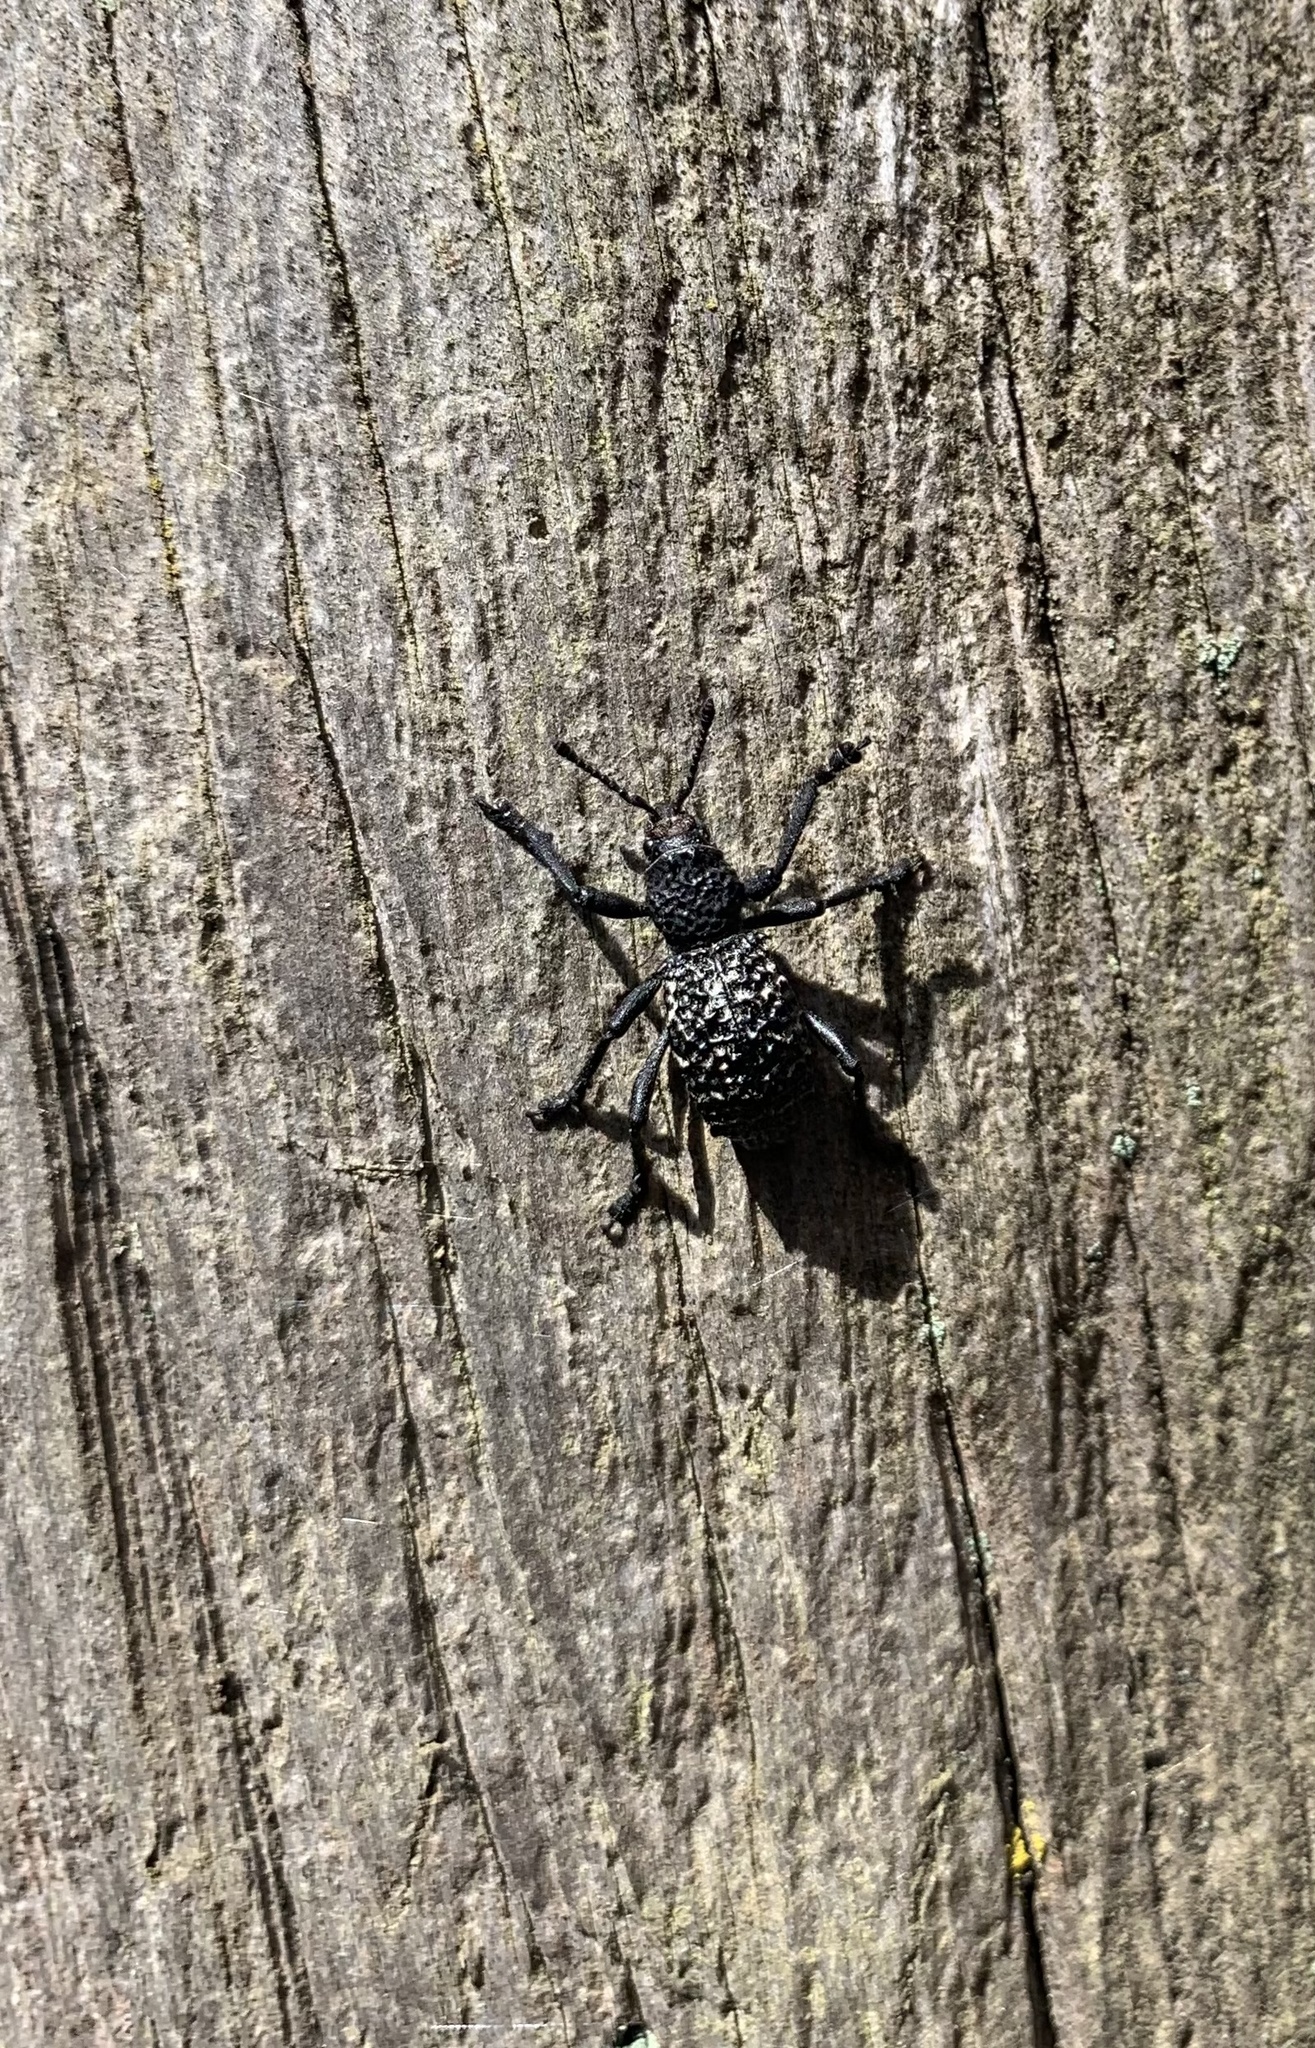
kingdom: Animalia
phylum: Arthropoda
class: Insecta
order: Coleoptera
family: Curculionidae
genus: Aegorhinus
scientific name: Aegorhinus superciliosus
